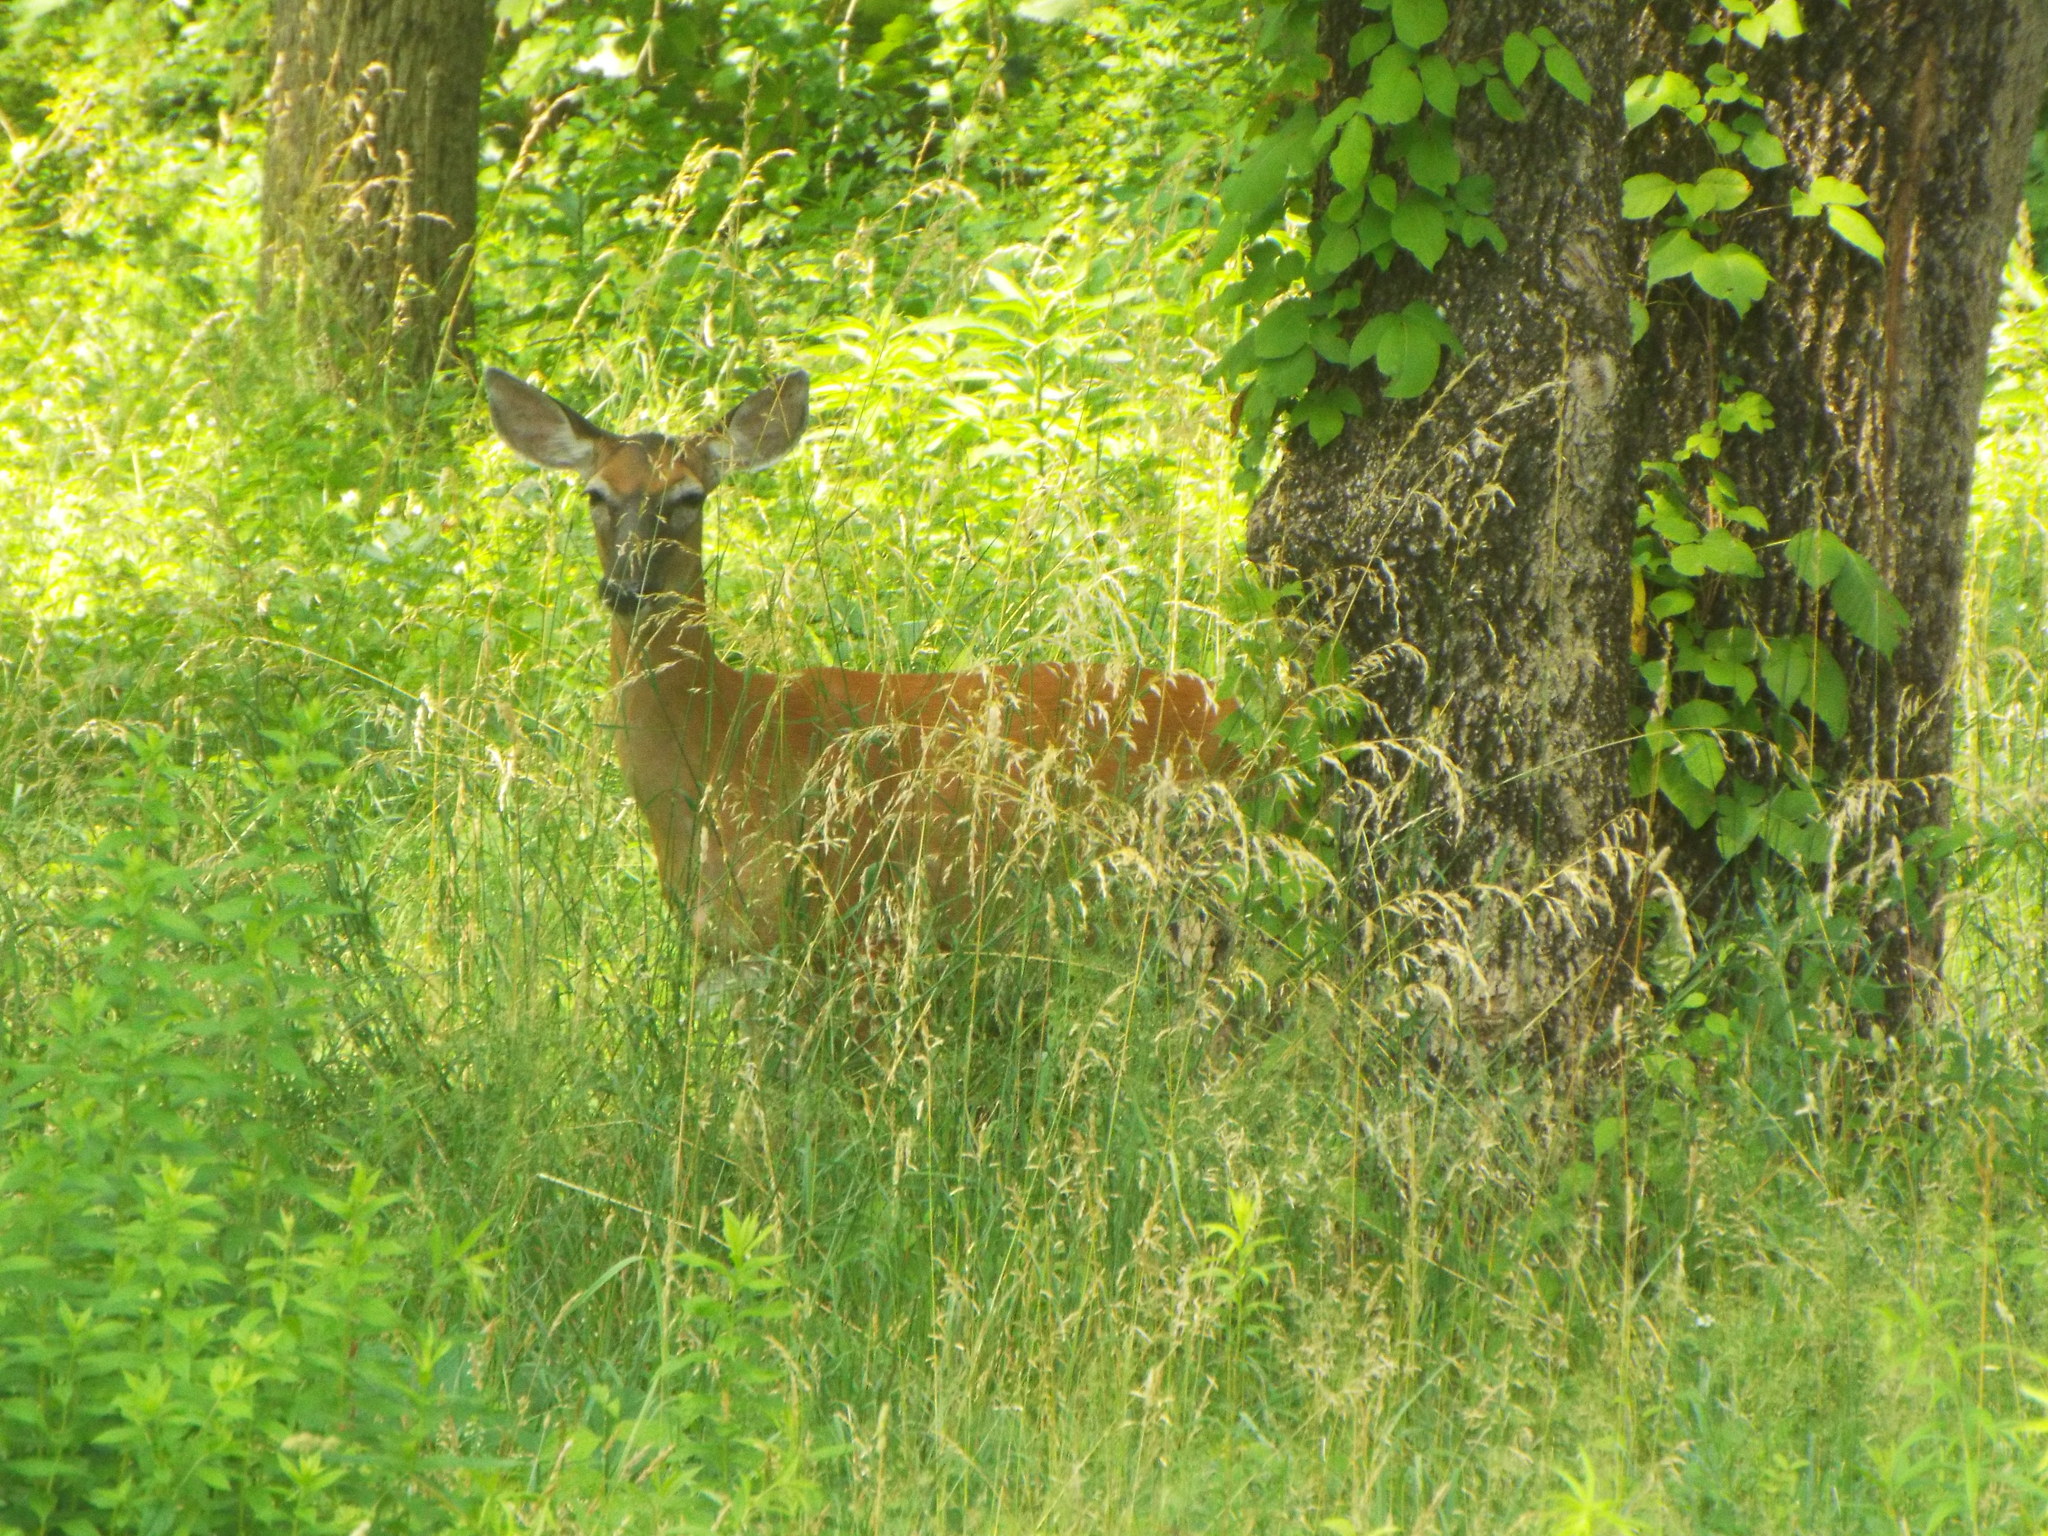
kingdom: Animalia
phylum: Chordata
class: Mammalia
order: Artiodactyla
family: Cervidae
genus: Odocoileus
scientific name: Odocoileus virginianus
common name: White-tailed deer
